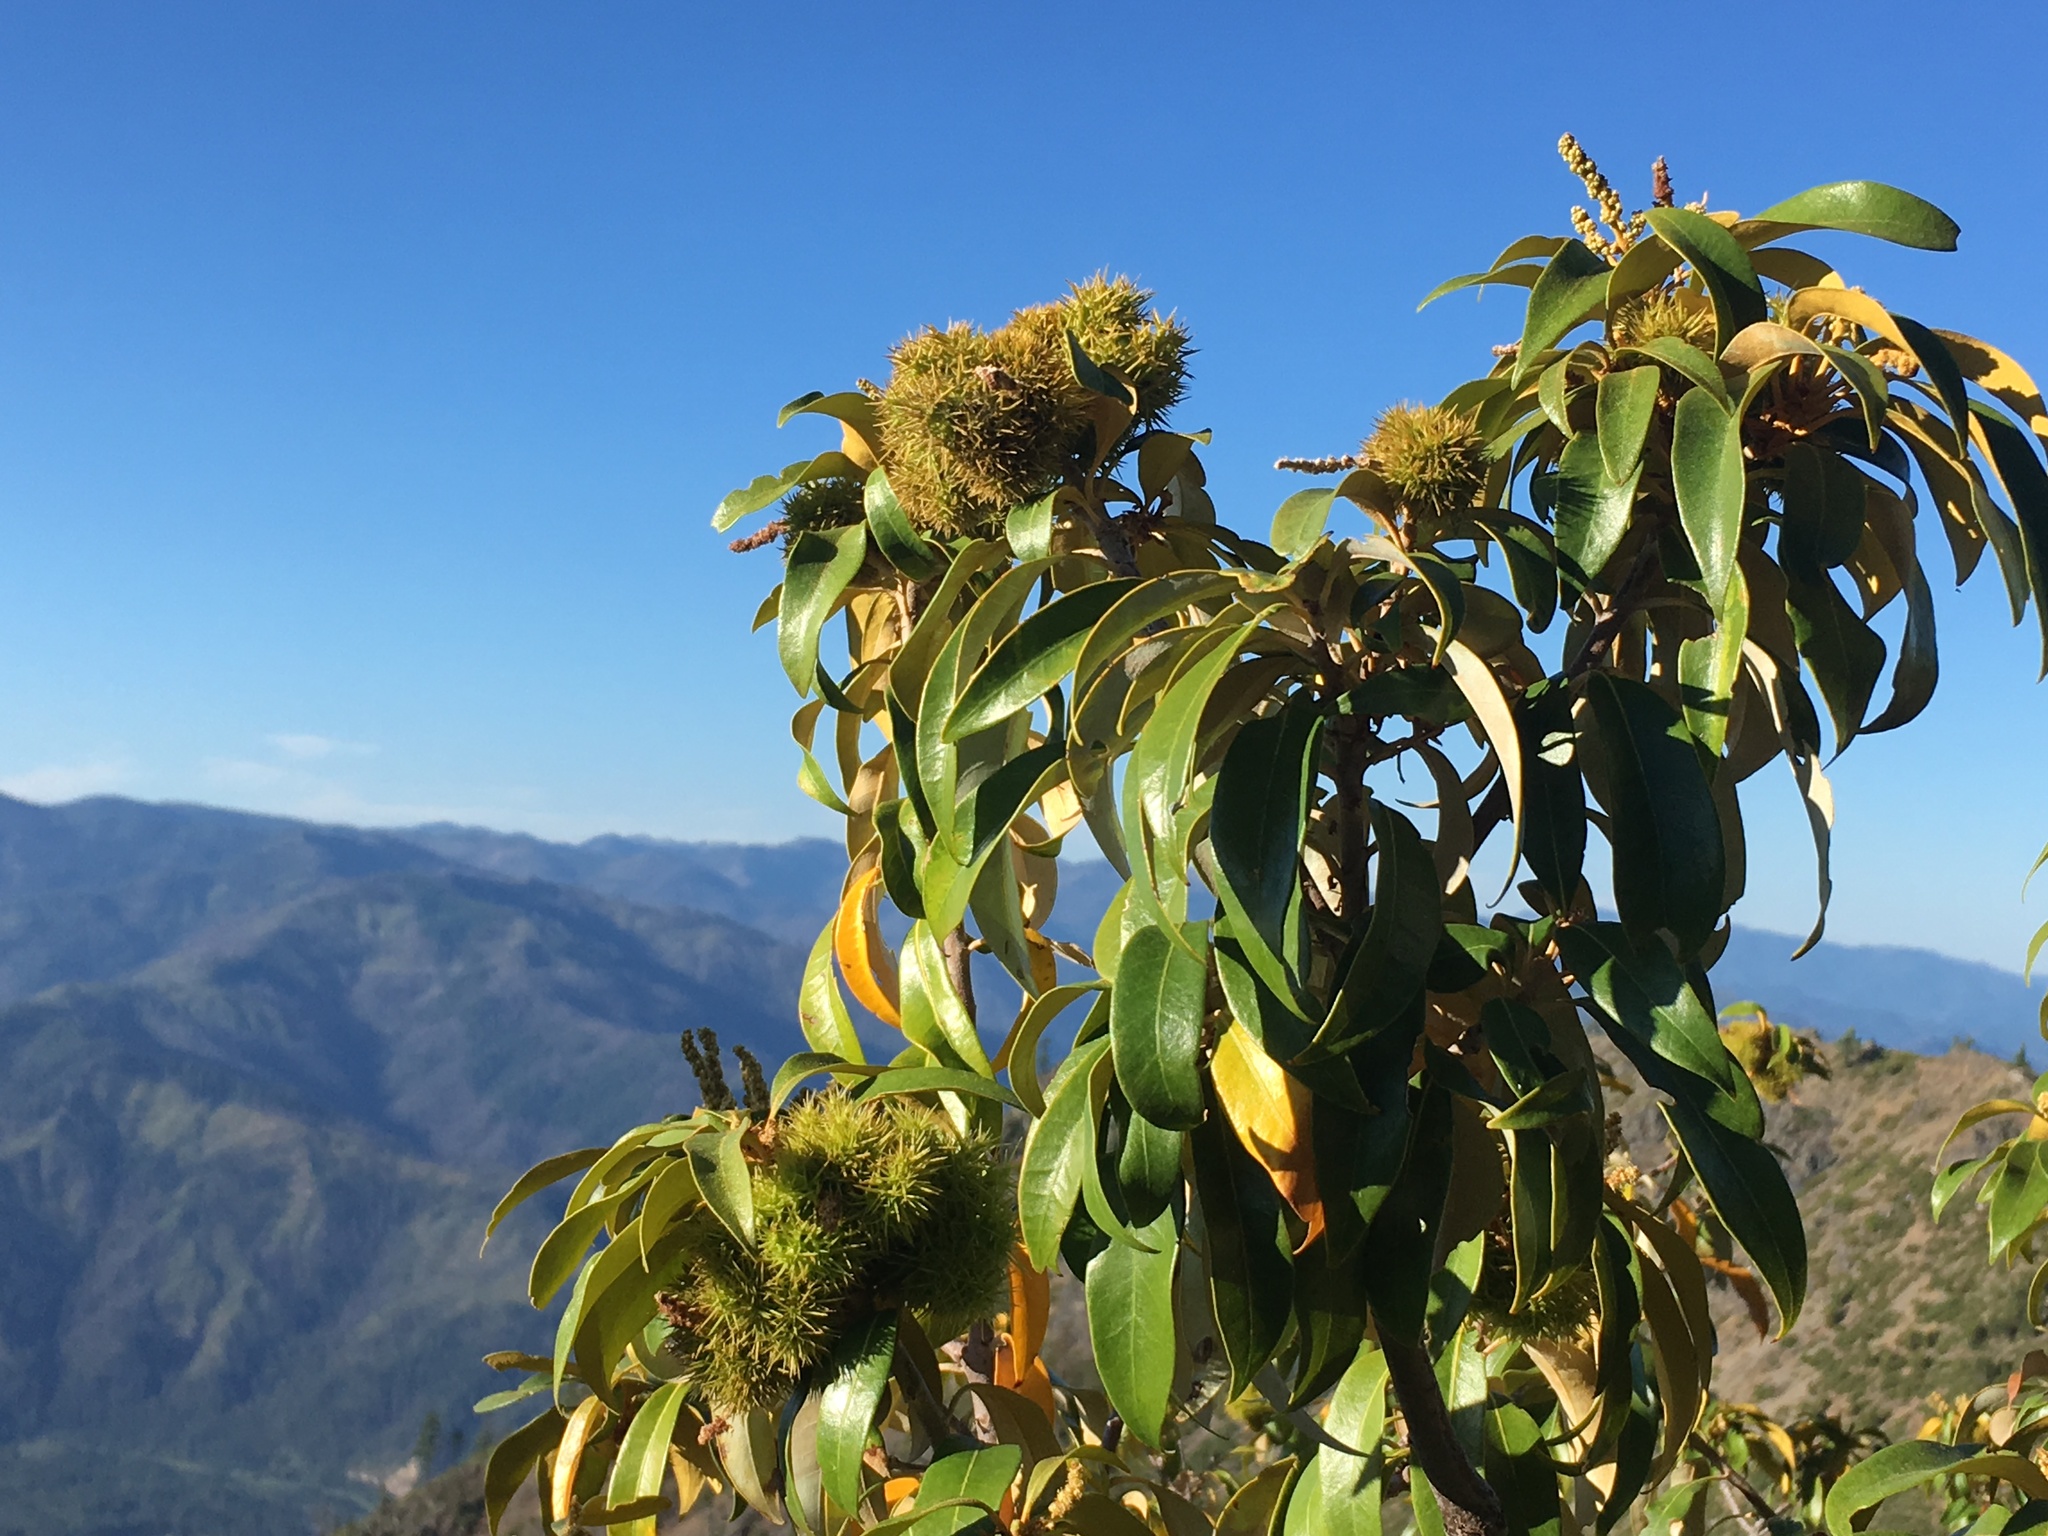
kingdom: Plantae
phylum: Tracheophyta
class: Magnoliopsida
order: Fagales
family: Fagaceae
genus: Chrysolepis
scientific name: Chrysolepis chrysophylla
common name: Giant chinquapin
